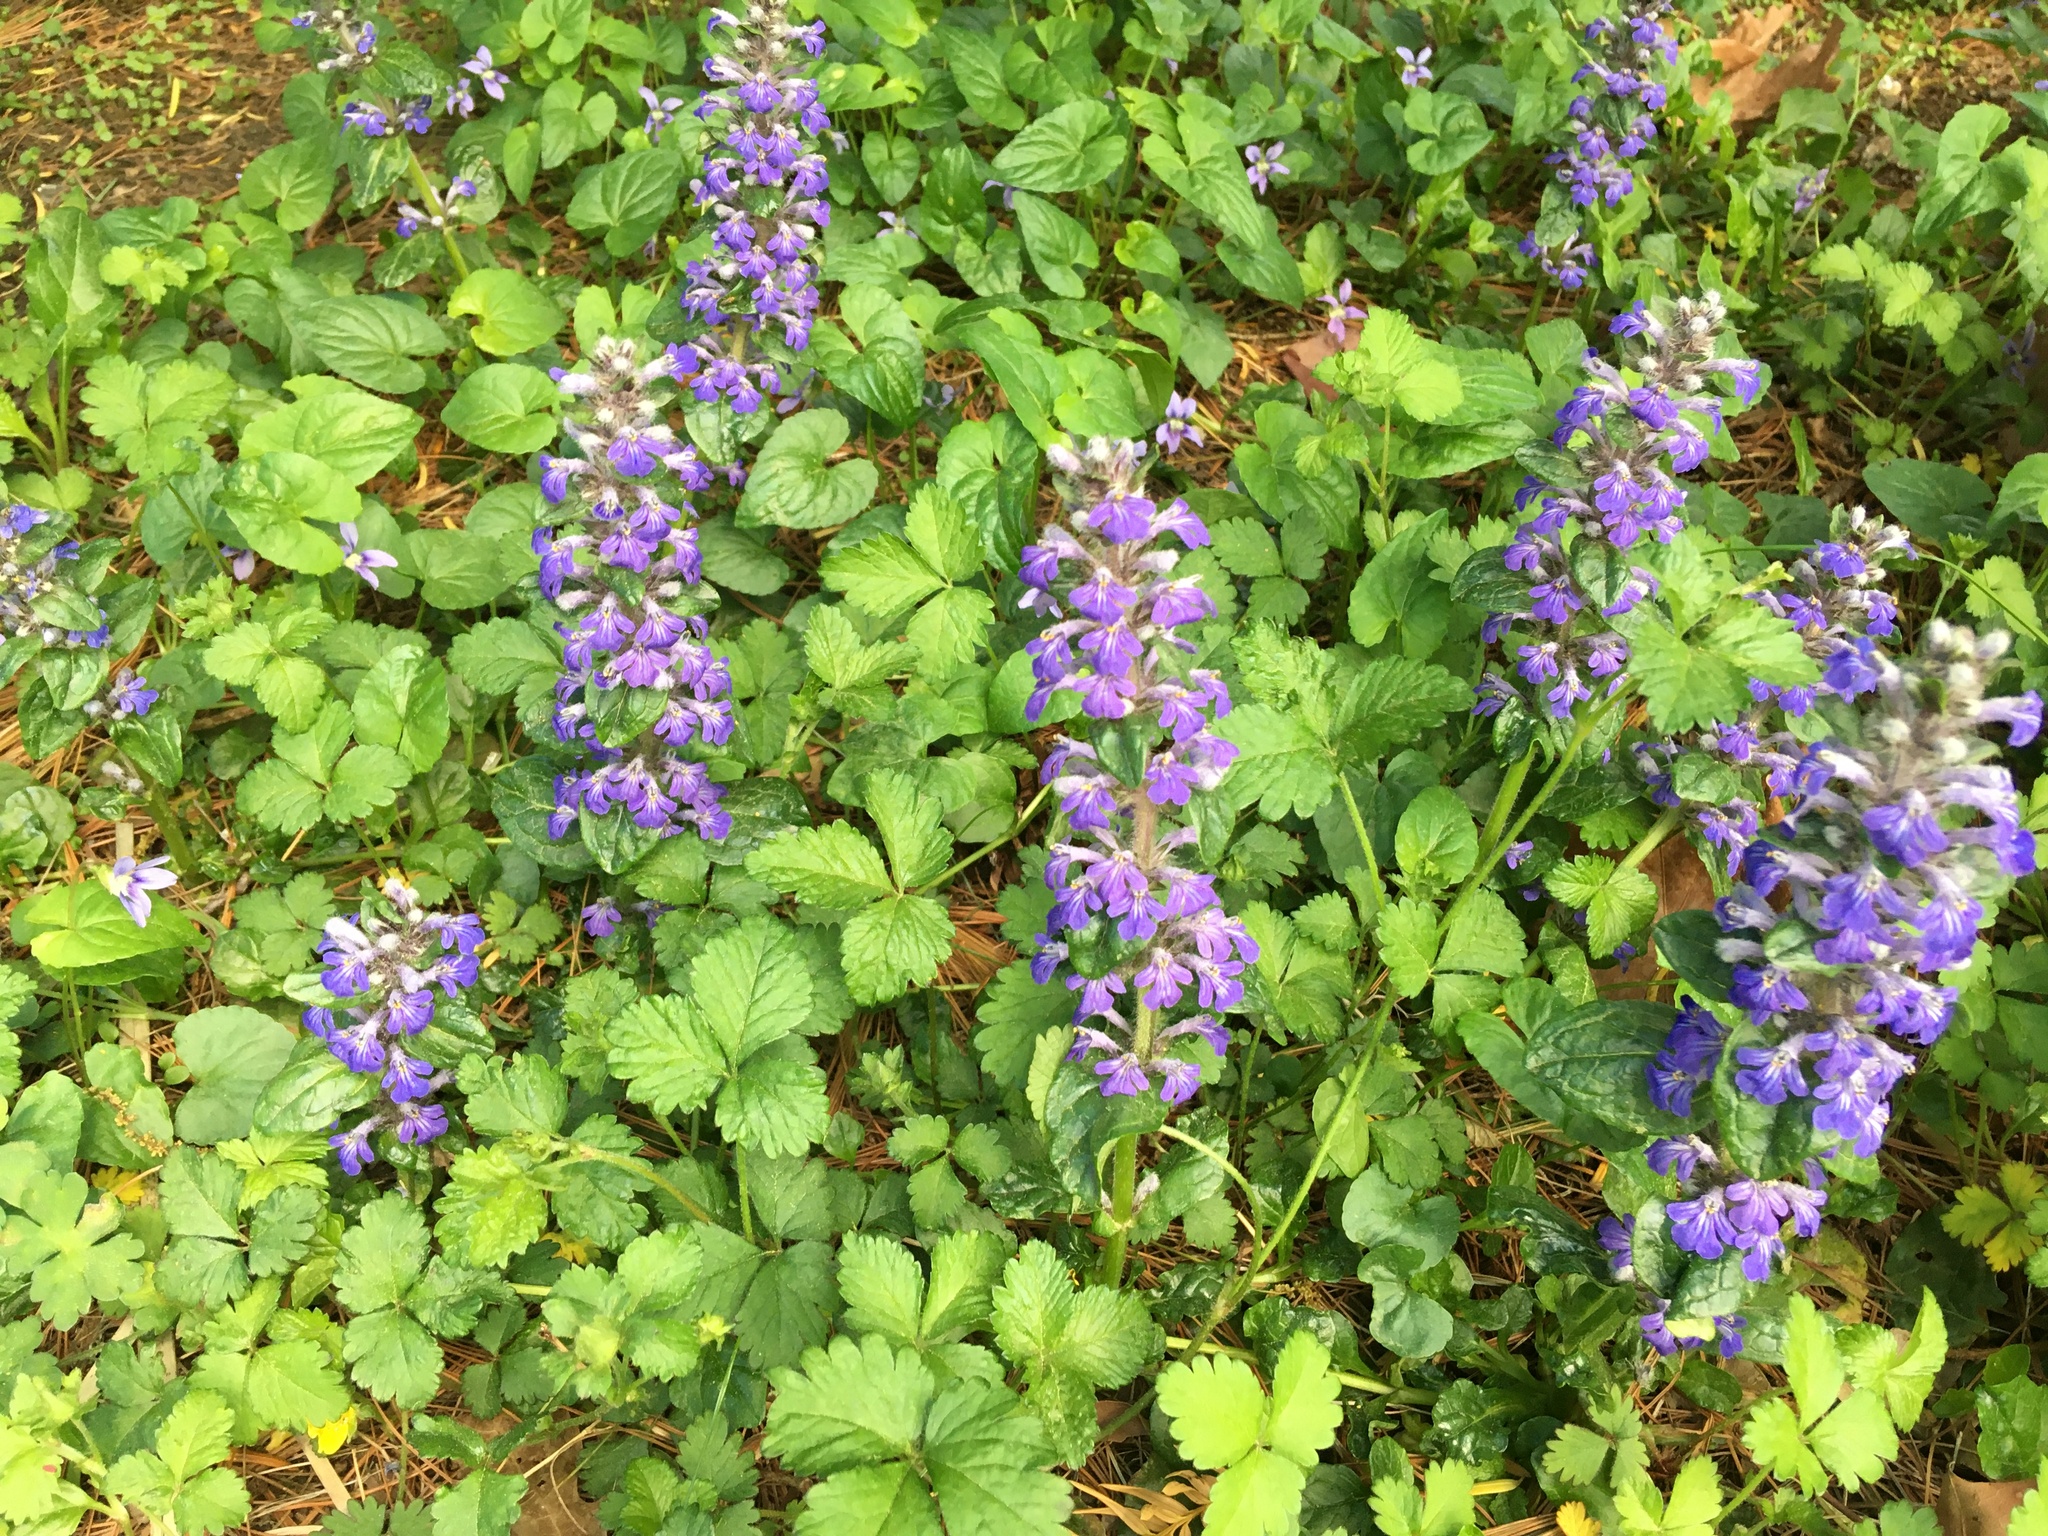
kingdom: Plantae
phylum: Tracheophyta
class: Magnoliopsida
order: Lamiales
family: Lamiaceae
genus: Ajuga
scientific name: Ajuga reptans
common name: Bugle
